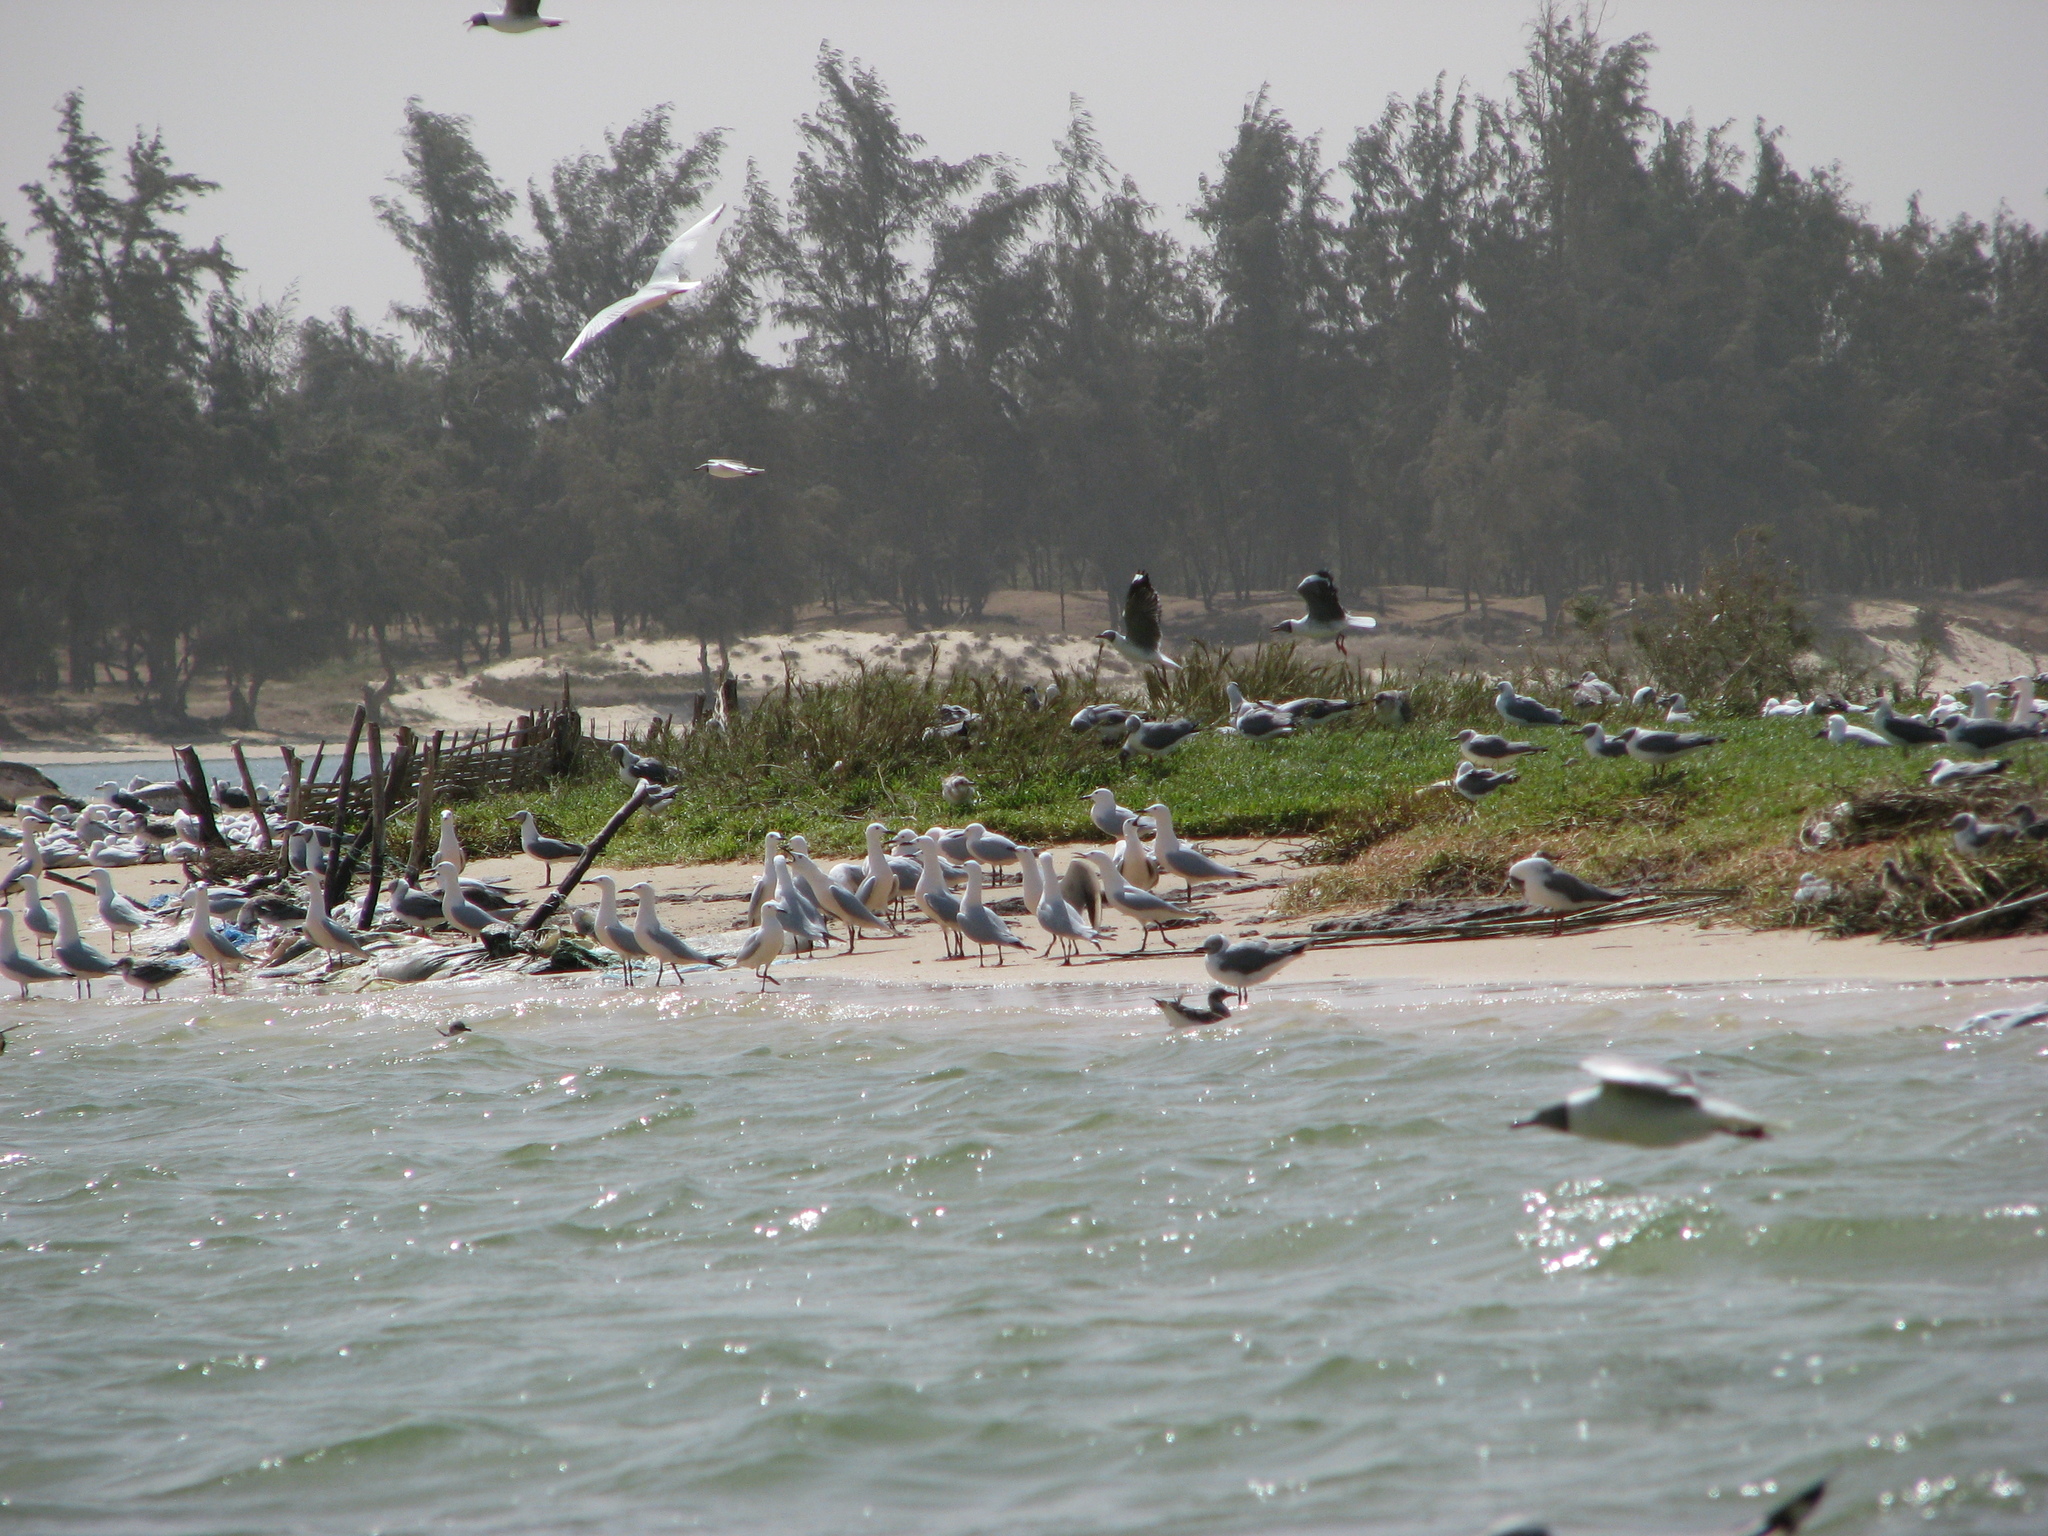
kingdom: Animalia
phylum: Chordata
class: Aves
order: Charadriiformes
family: Laridae
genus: Chroicocephalus
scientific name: Chroicocephalus cirrocephalus
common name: Grey-headed gull
